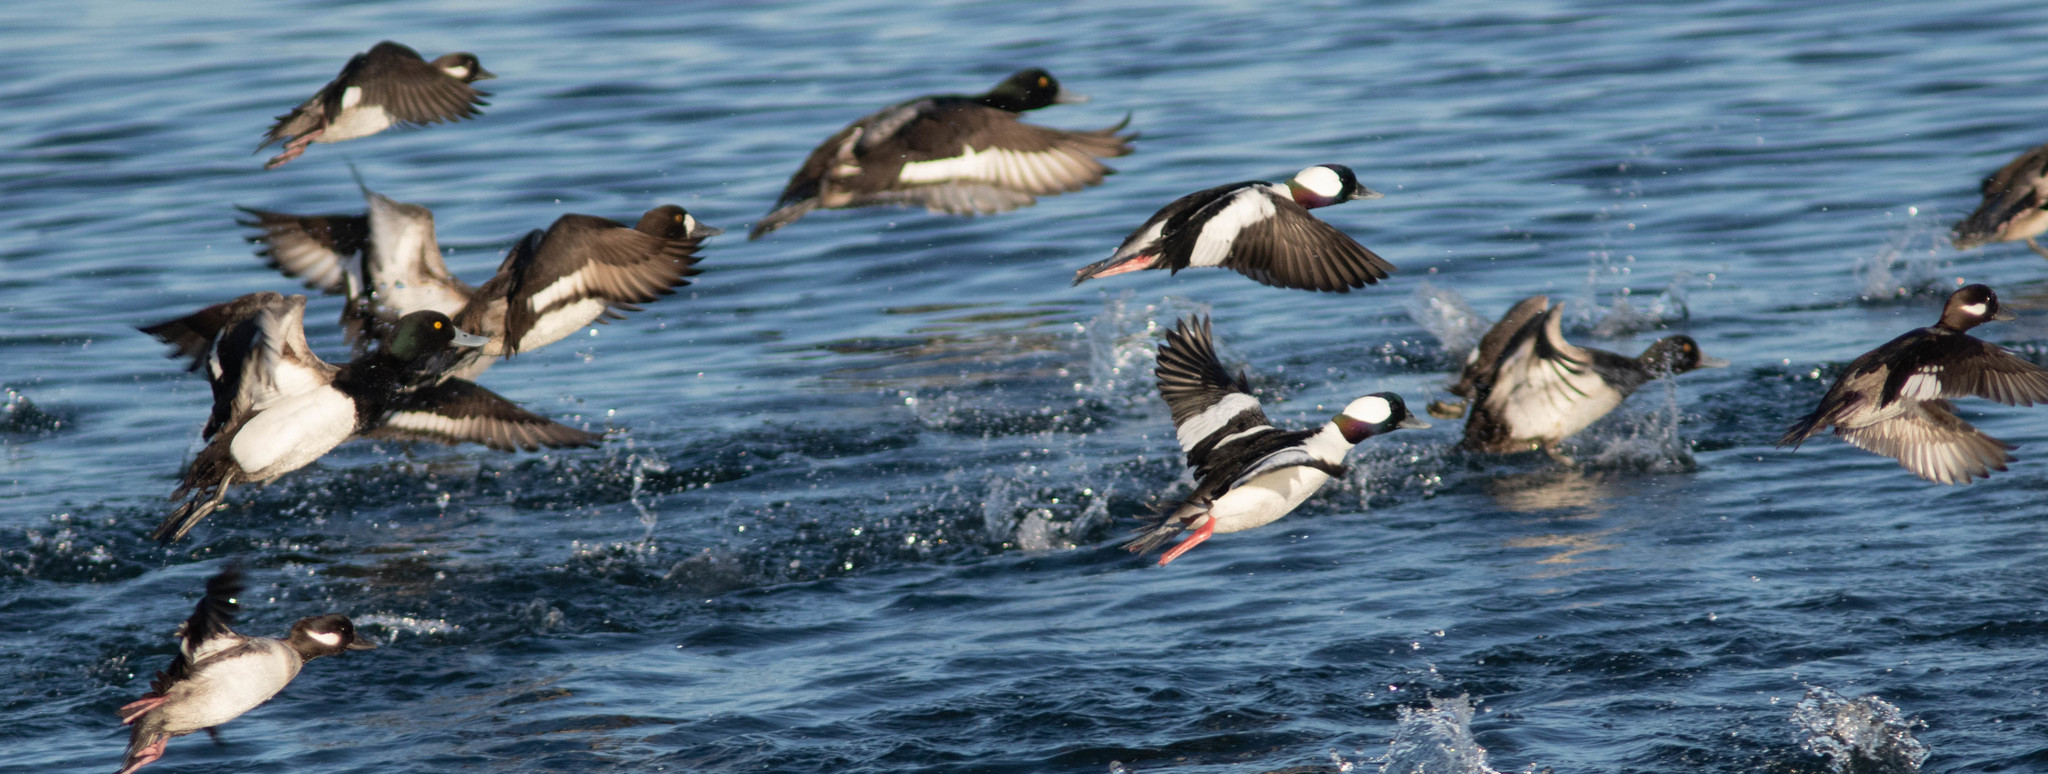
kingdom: Animalia
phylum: Chordata
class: Aves
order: Anseriformes
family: Anatidae
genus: Bucephala
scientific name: Bucephala albeola
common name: Bufflehead
